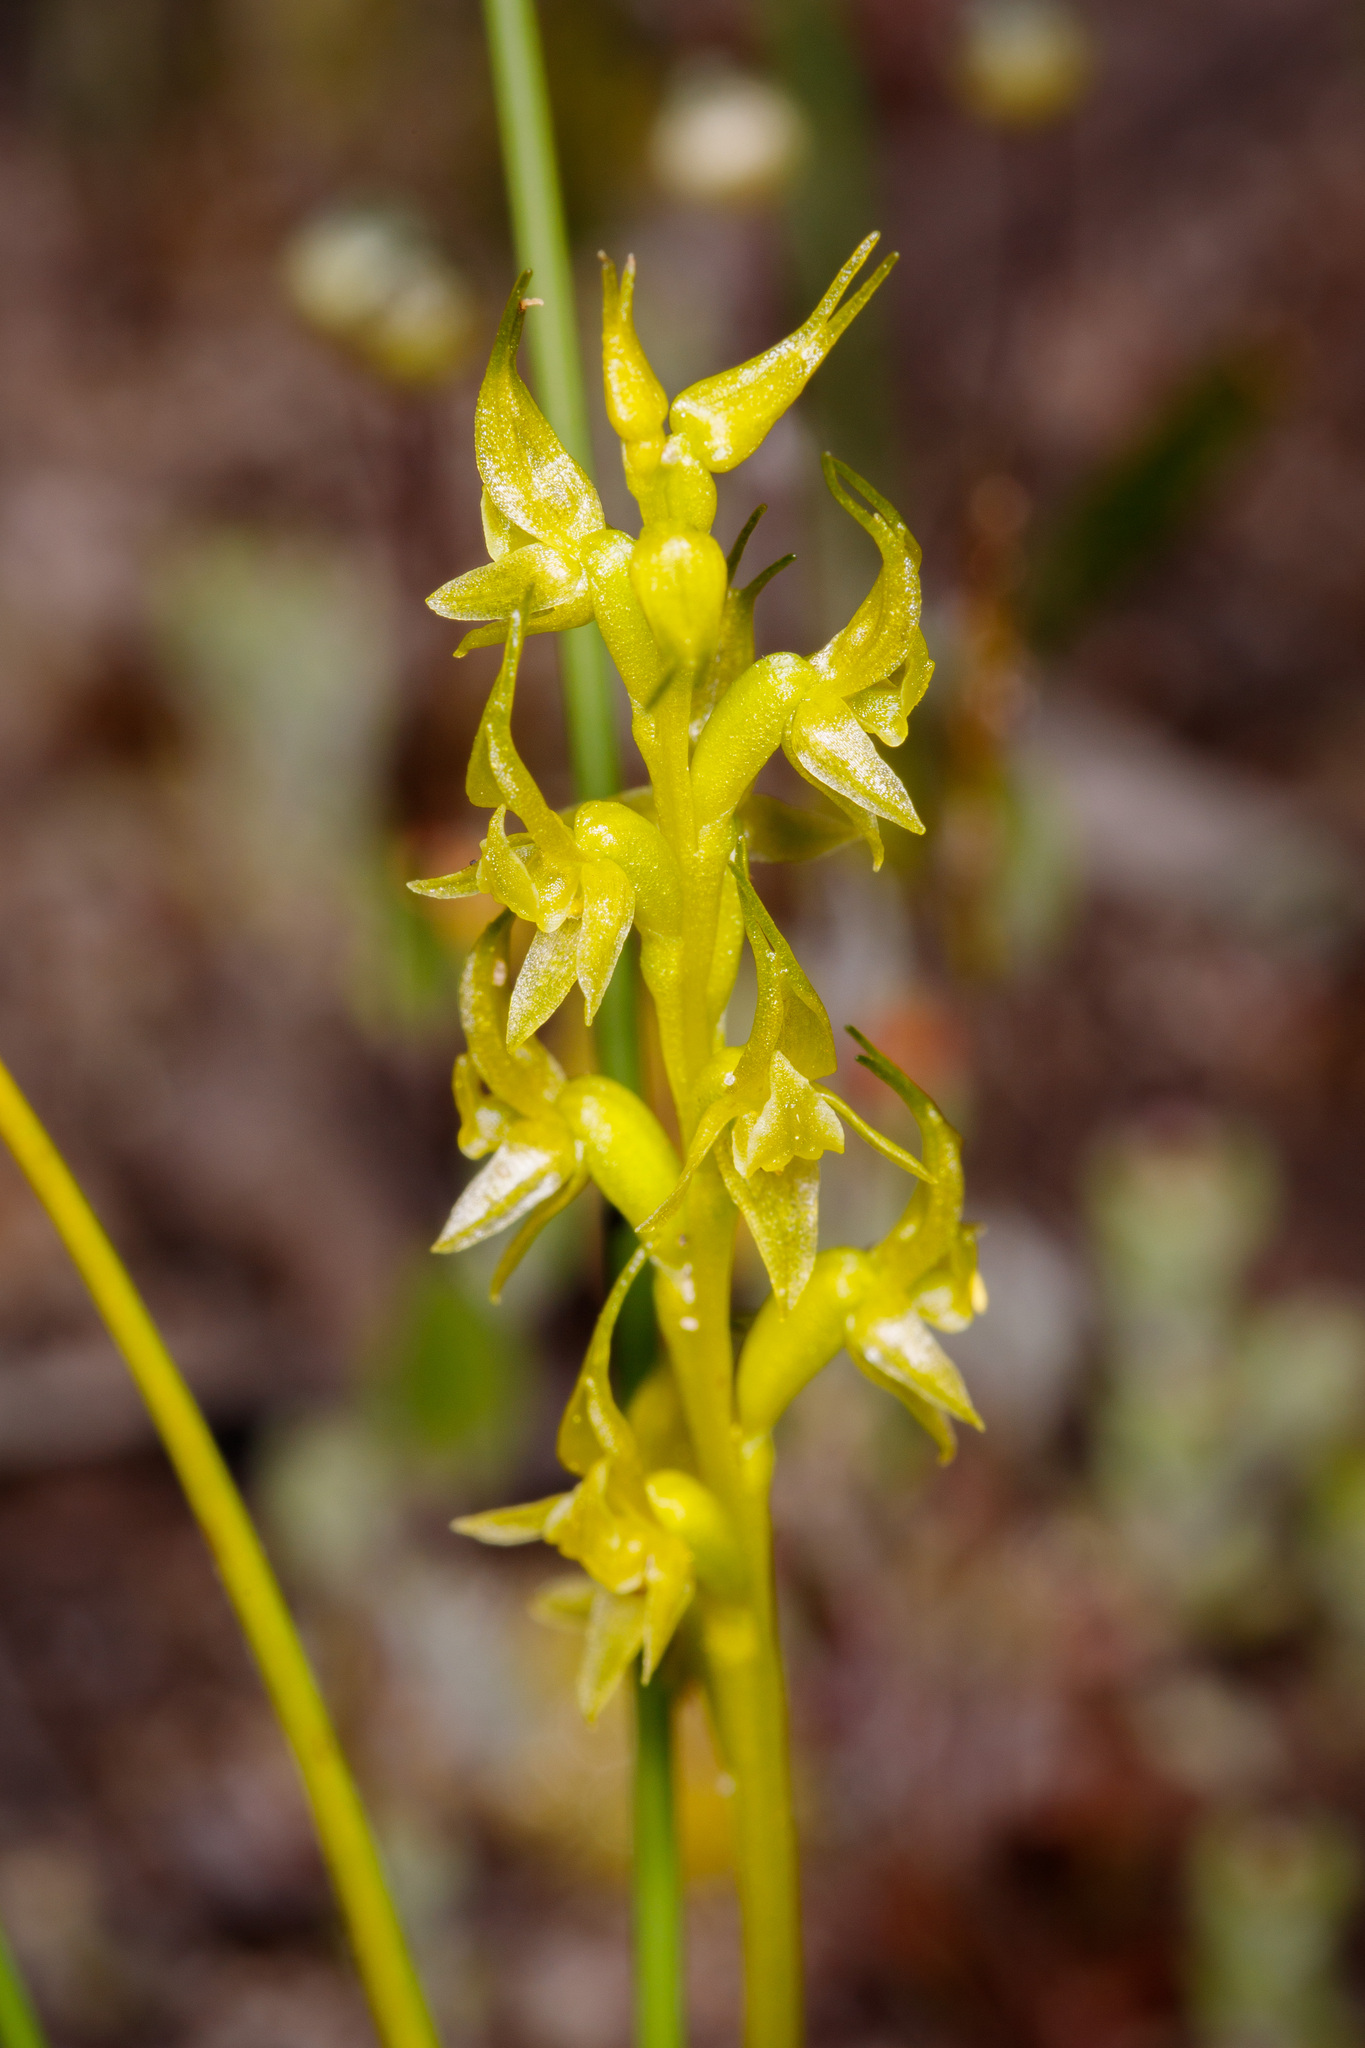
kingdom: Plantae
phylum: Tracheophyta
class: Liliopsida
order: Asparagales
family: Orchidaceae
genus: Prasophyllum
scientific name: Prasophyllum gracile
